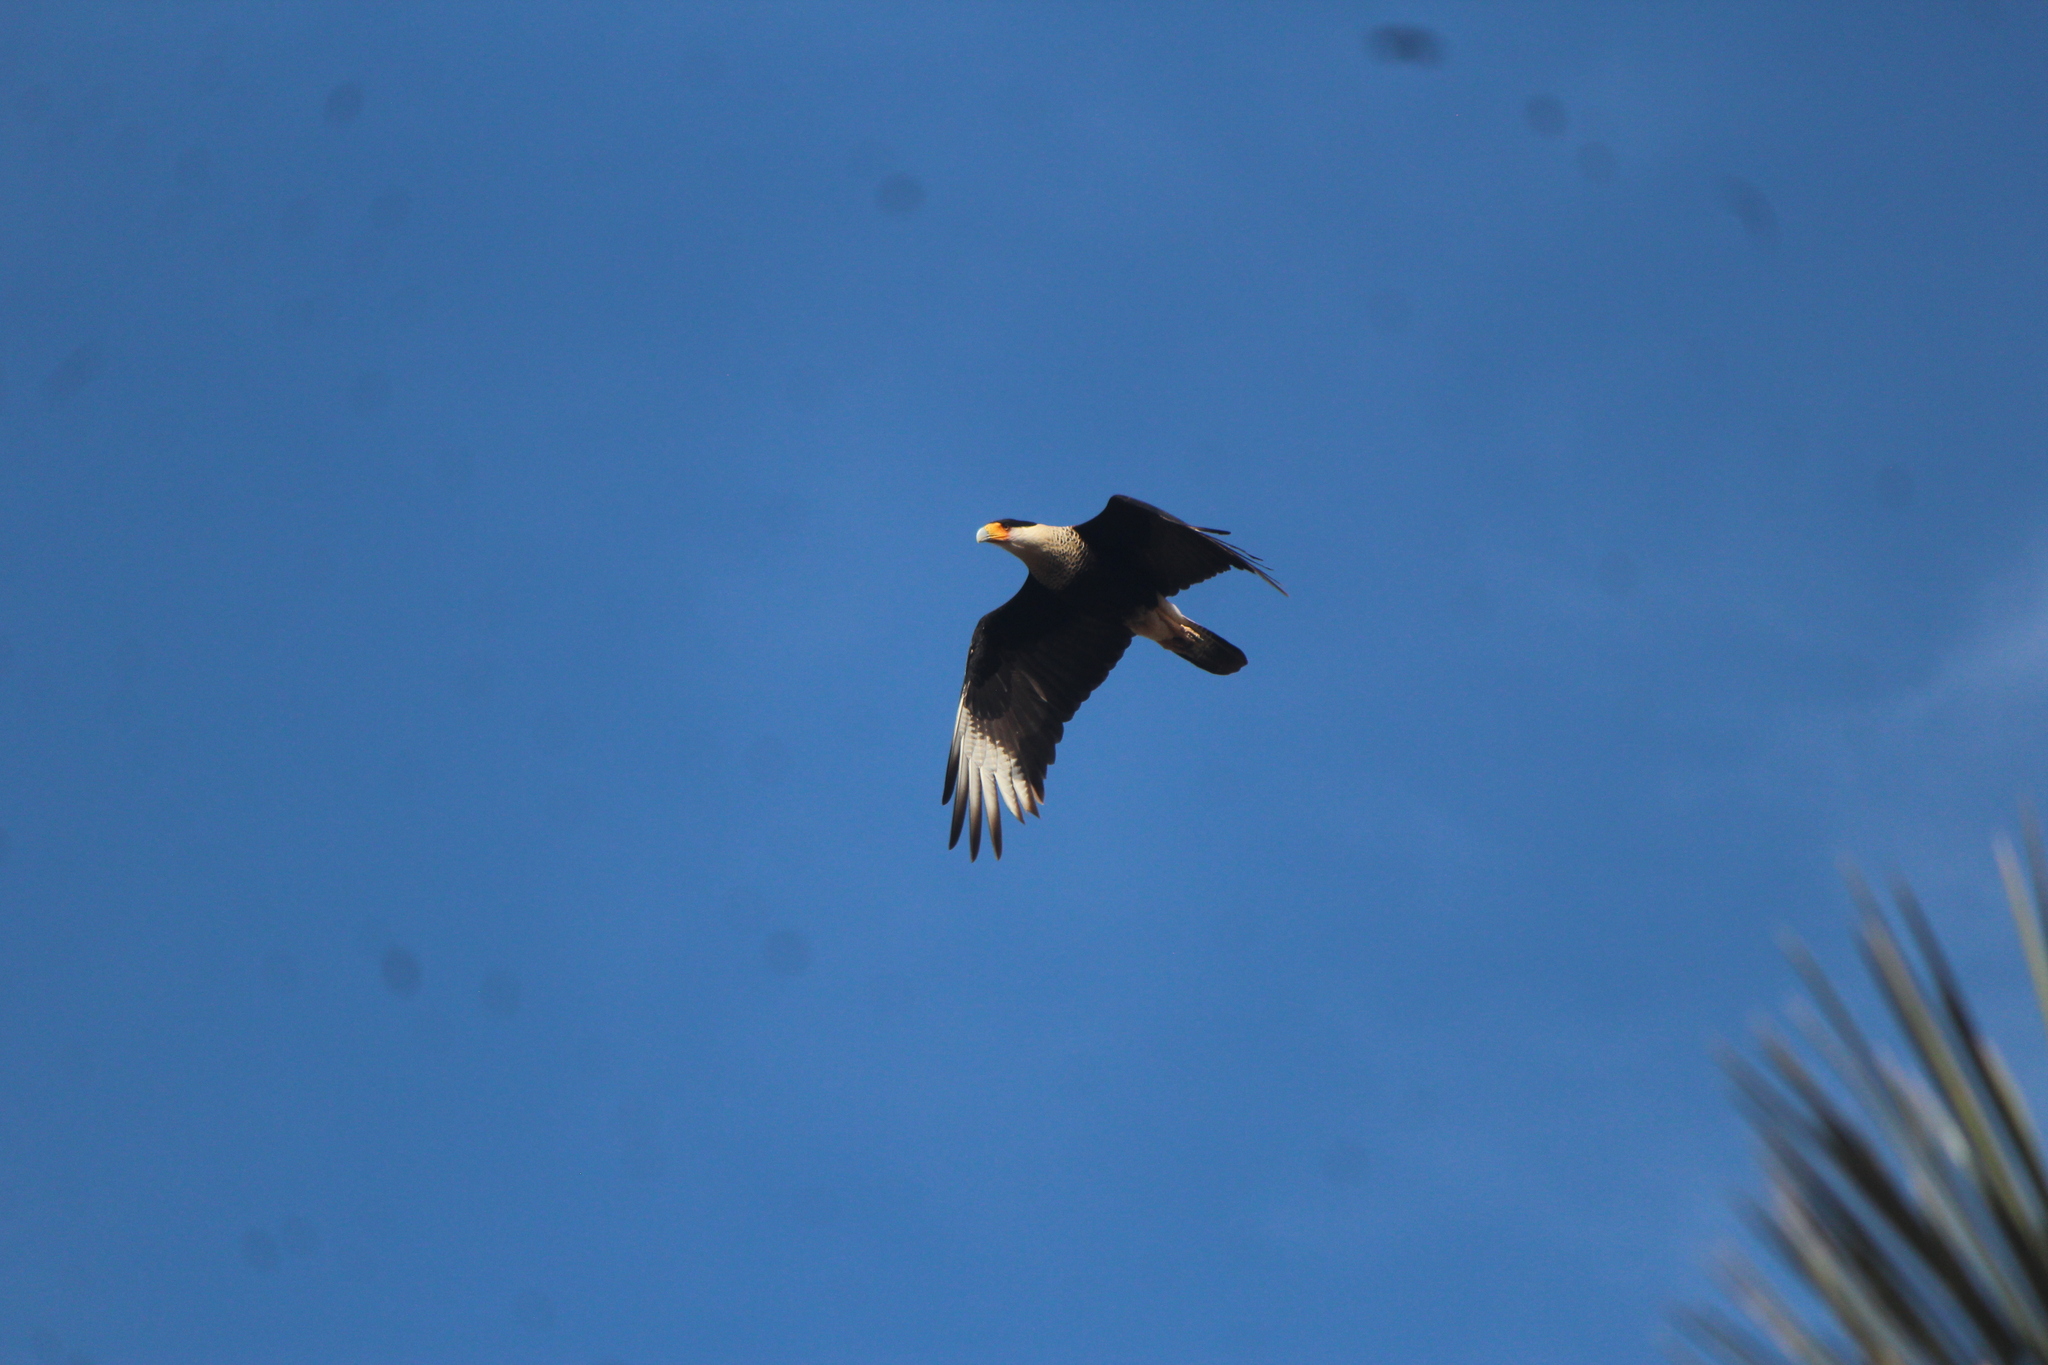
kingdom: Animalia
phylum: Chordata
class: Aves
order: Falconiformes
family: Falconidae
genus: Caracara
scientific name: Caracara plancus
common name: Southern caracara
